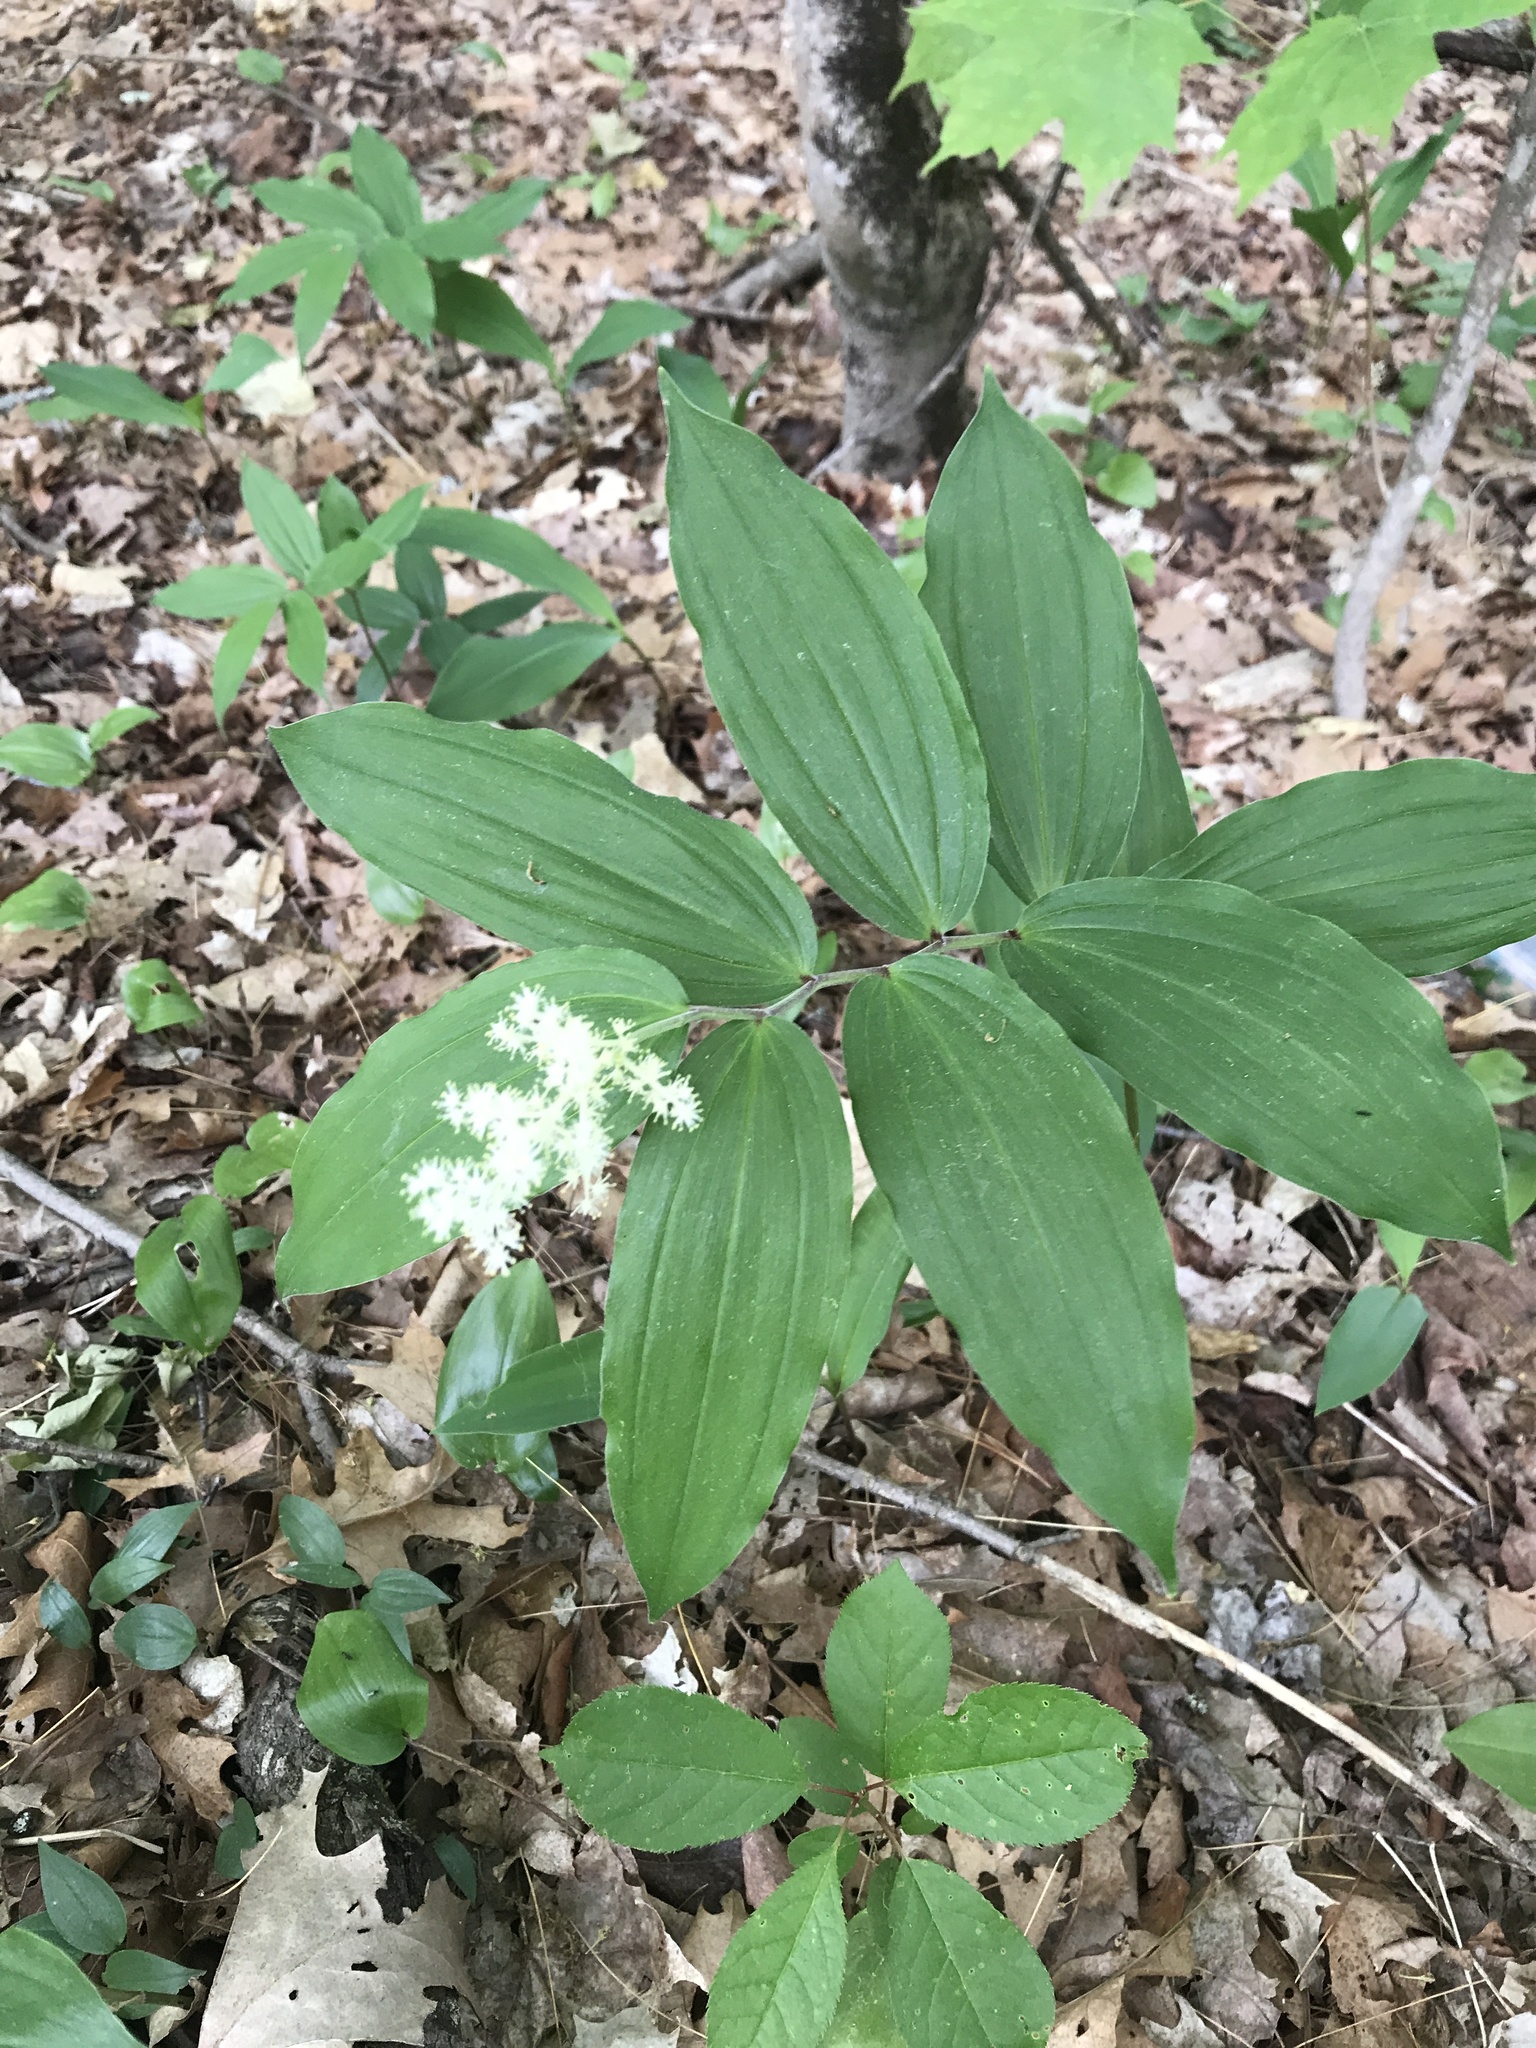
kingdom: Plantae
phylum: Tracheophyta
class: Liliopsida
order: Asparagales
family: Asparagaceae
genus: Maianthemum
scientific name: Maianthemum racemosum
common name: False spikenard
